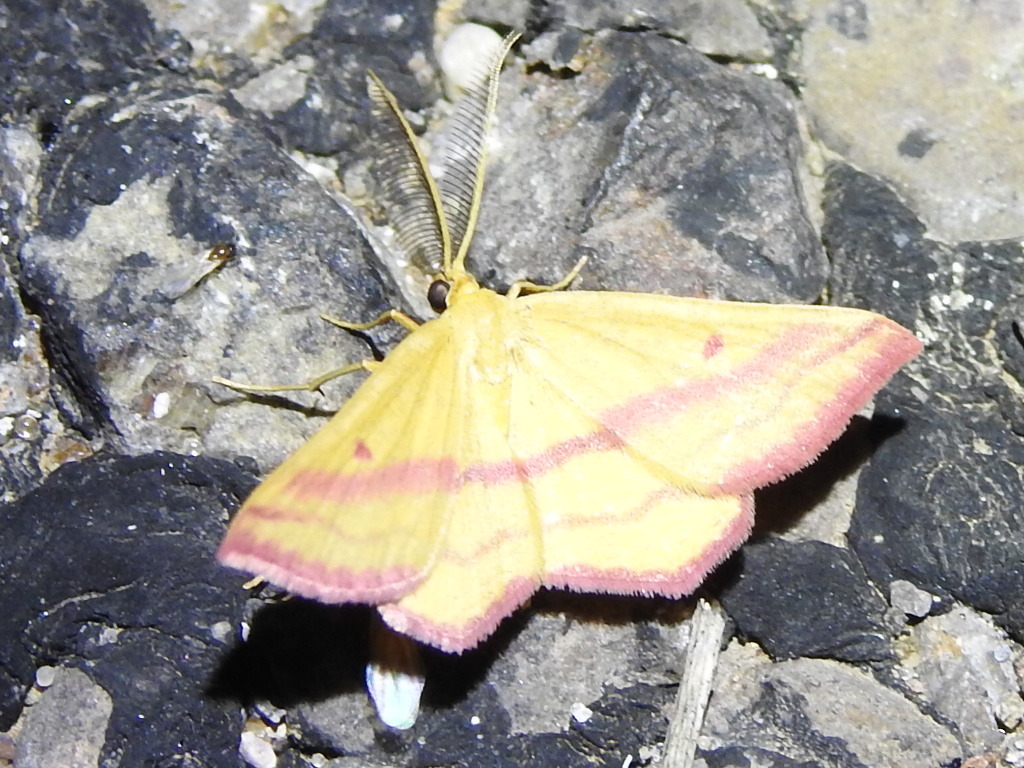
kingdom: Animalia
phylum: Arthropoda
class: Insecta
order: Lepidoptera
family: Geometridae
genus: Haematopis
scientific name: Haematopis grataria
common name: Chickweed geometer
